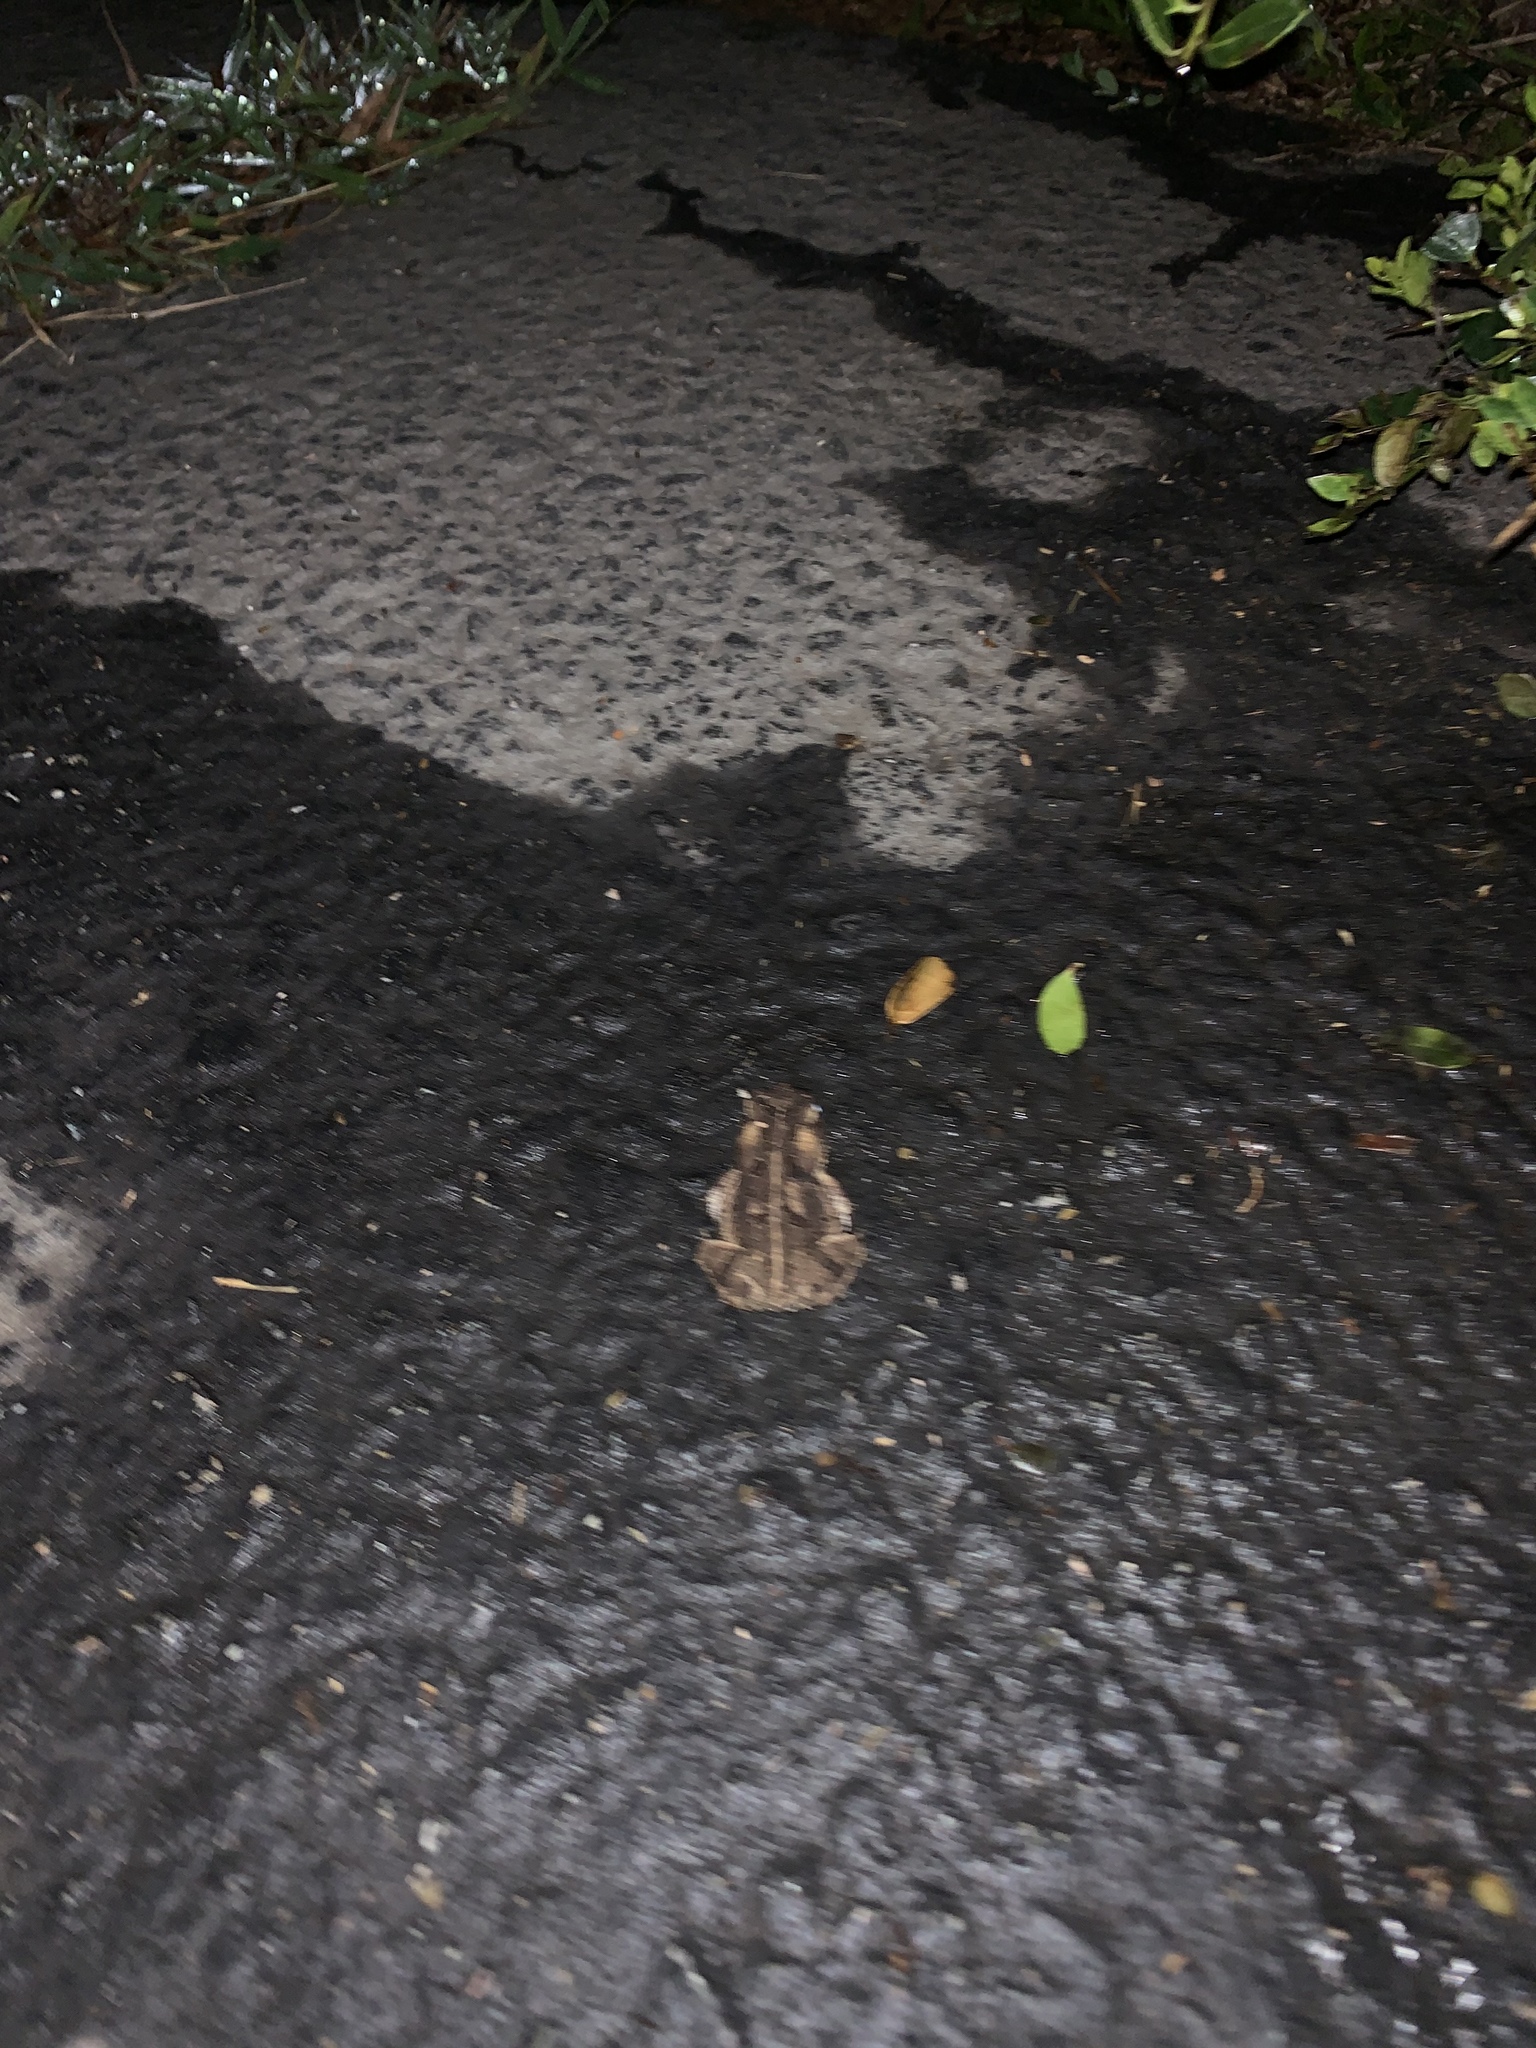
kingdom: Animalia
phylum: Chordata
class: Amphibia
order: Anura
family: Bufonidae
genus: Anaxyrus
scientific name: Anaxyrus fowleri
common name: Fowler's toad
